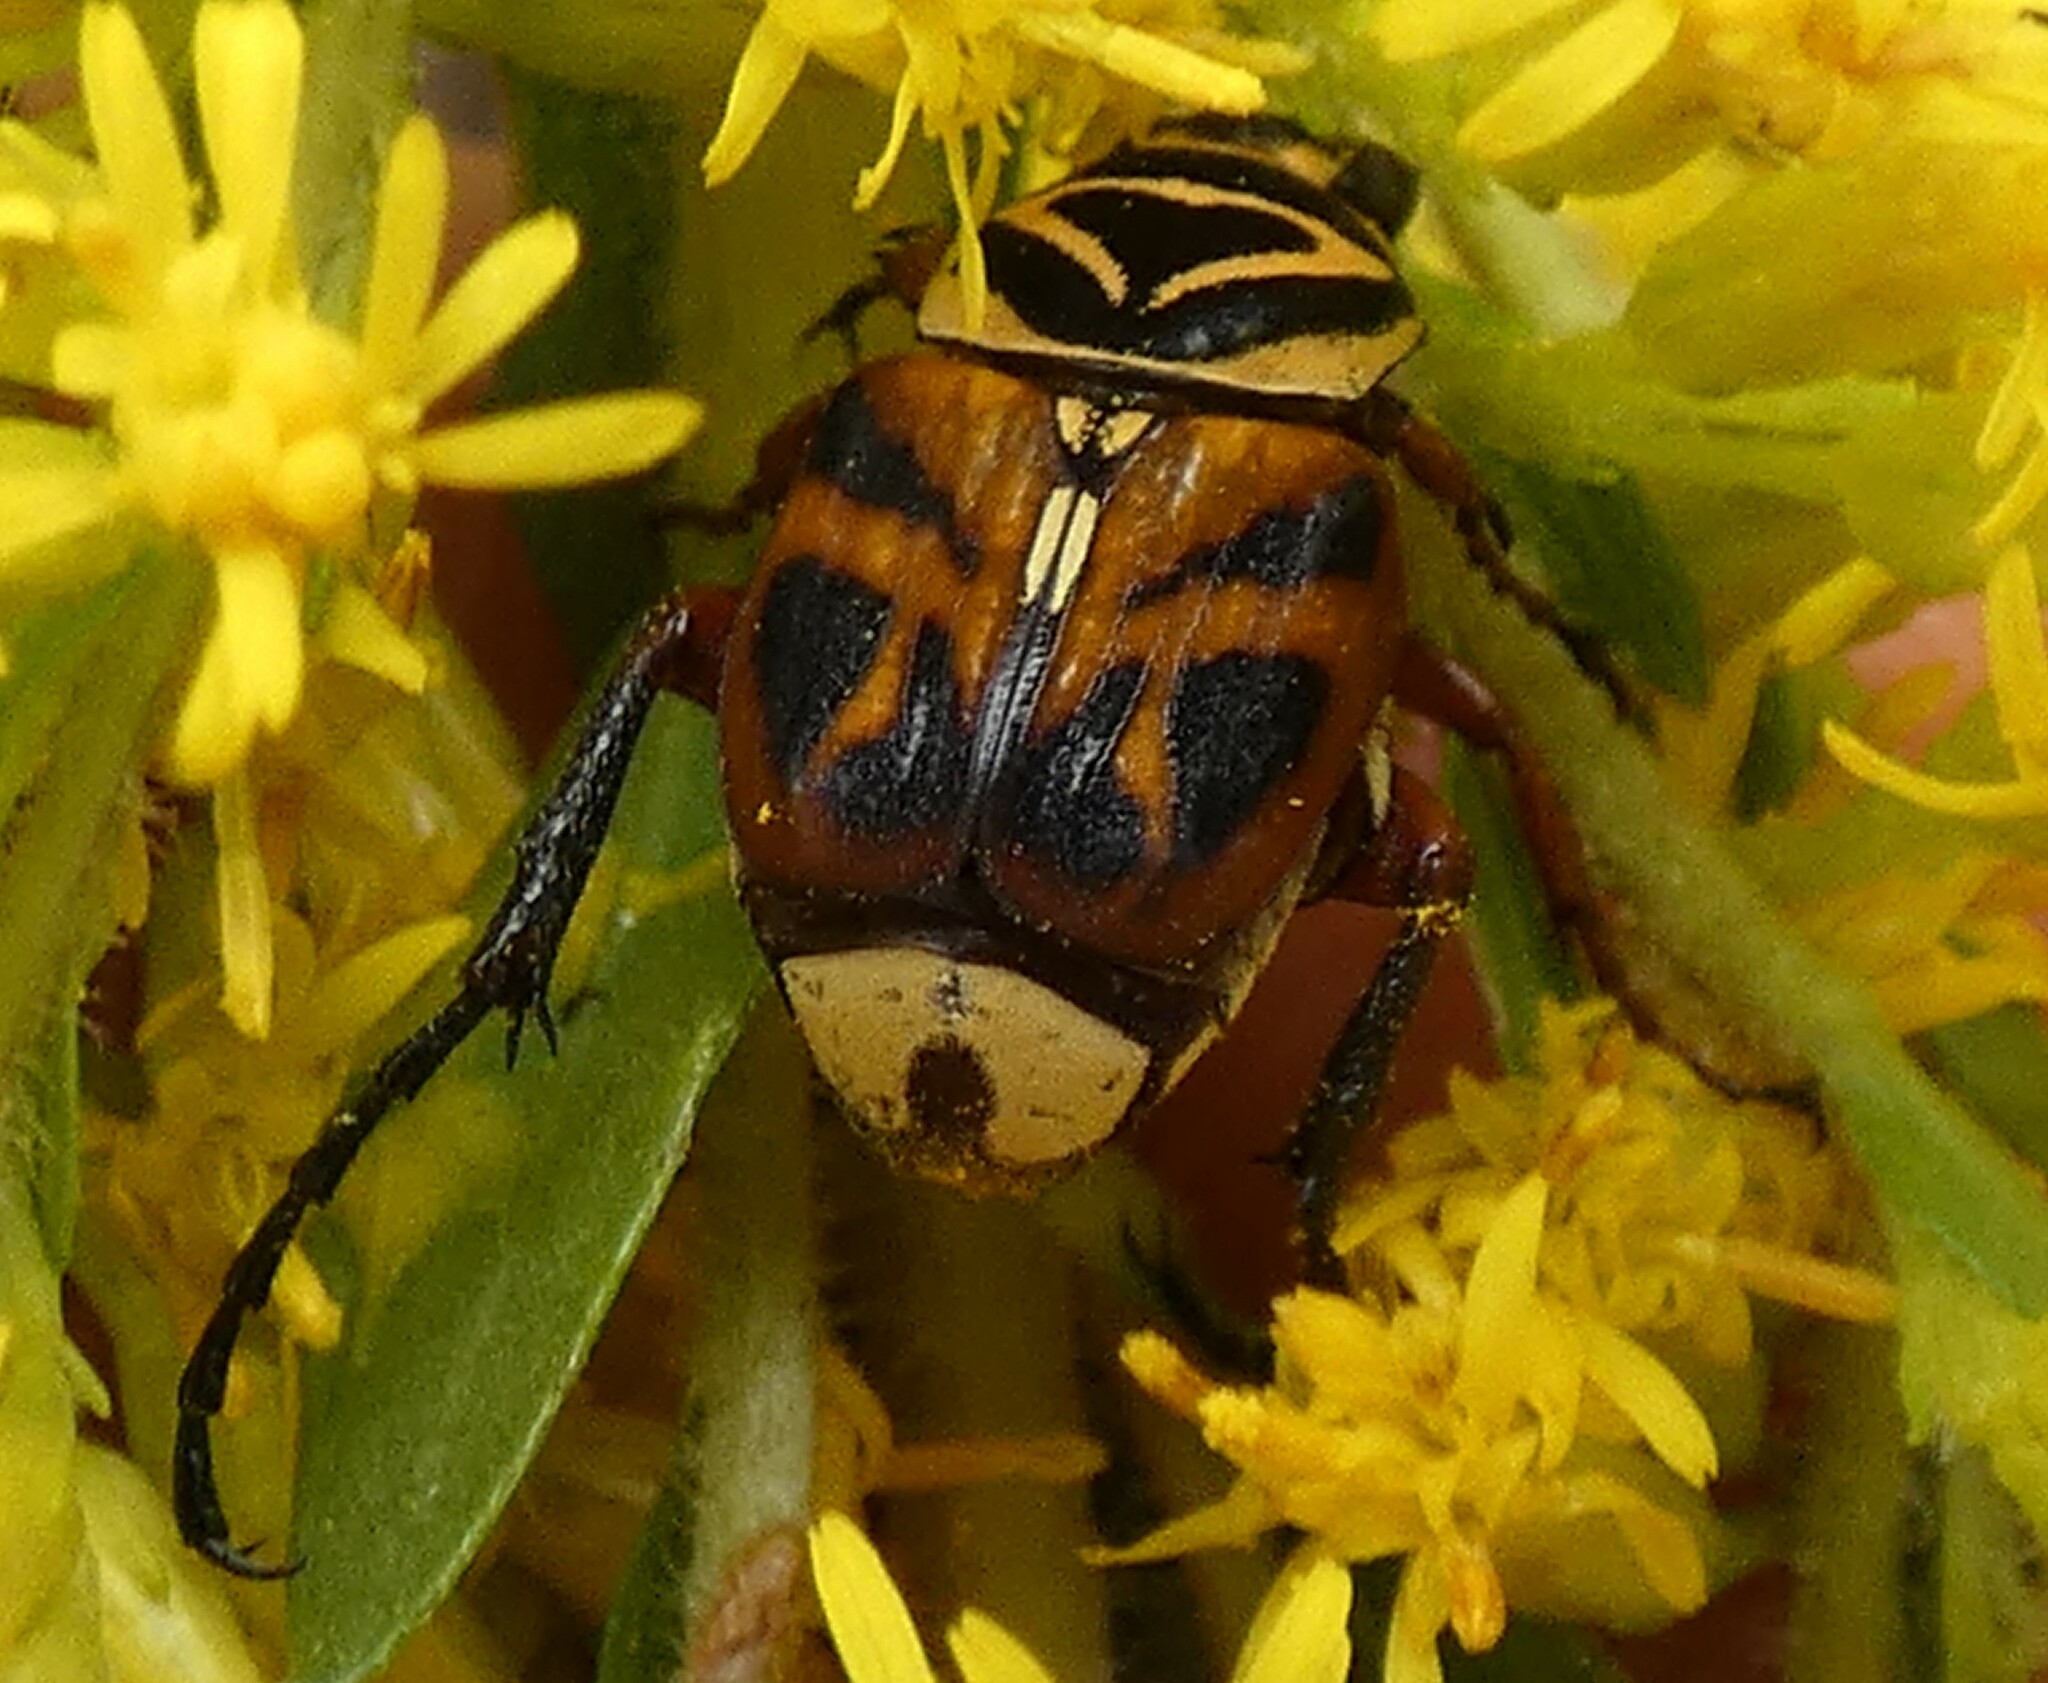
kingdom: Animalia
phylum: Arthropoda
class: Insecta
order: Coleoptera
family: Scarabaeidae
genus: Trigonopeltastes
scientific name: Trigonopeltastes delta
